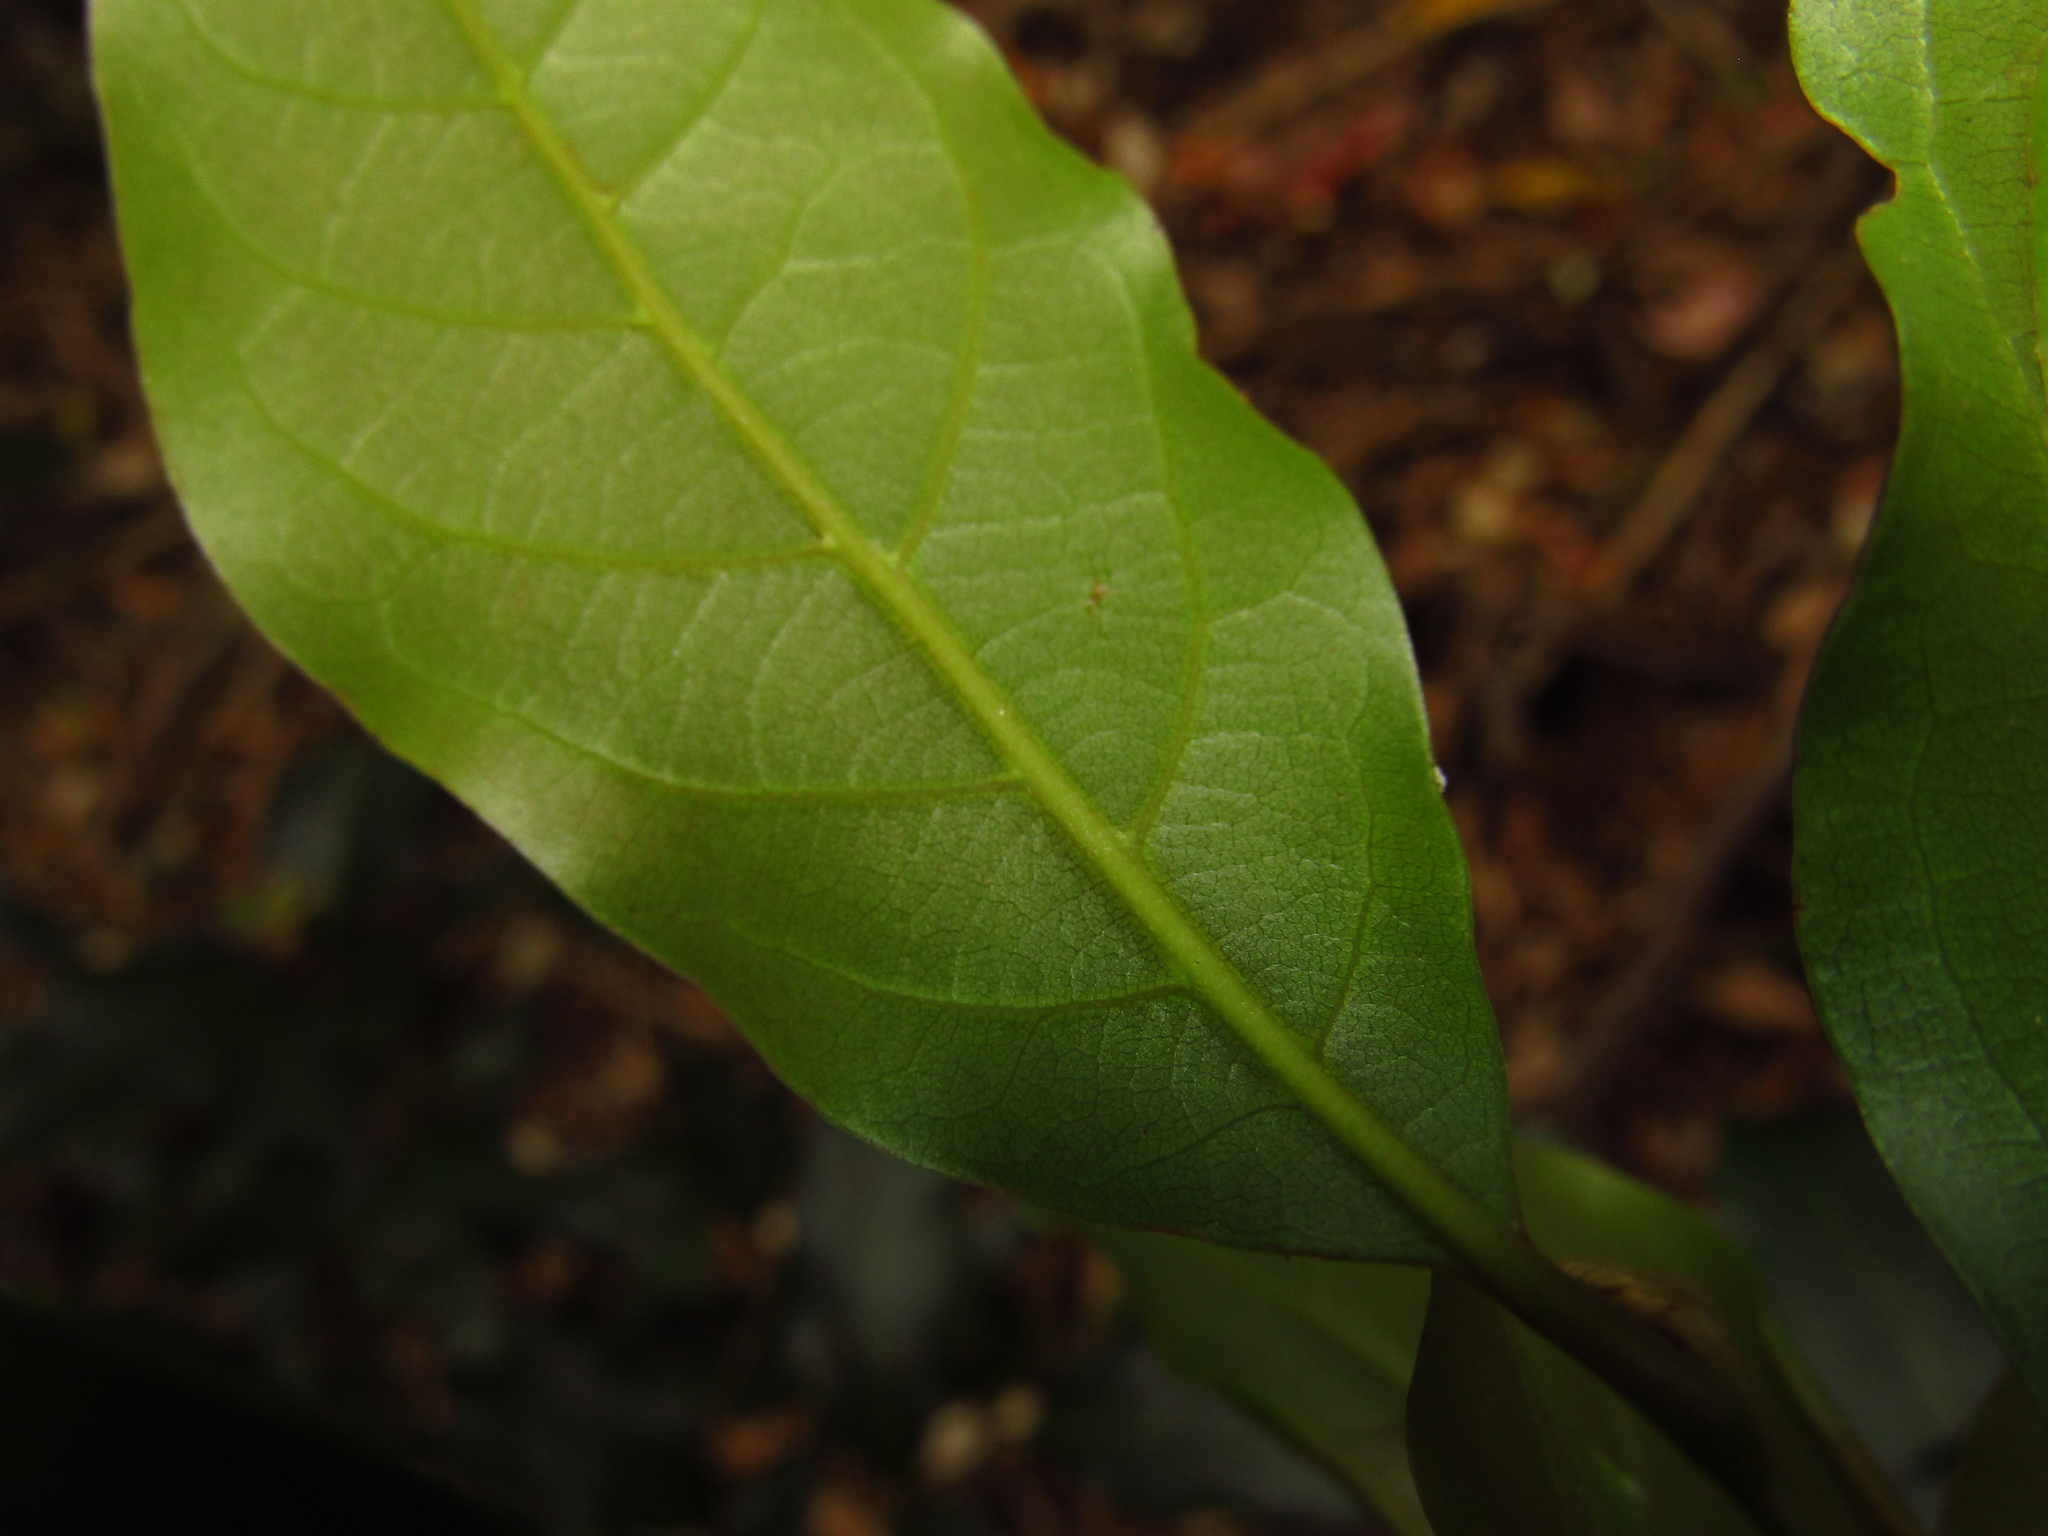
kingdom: Plantae
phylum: Tracheophyta
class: Magnoliopsida
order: Laurales
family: Lauraceae
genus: Endiandra
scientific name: Endiandra muelleri
